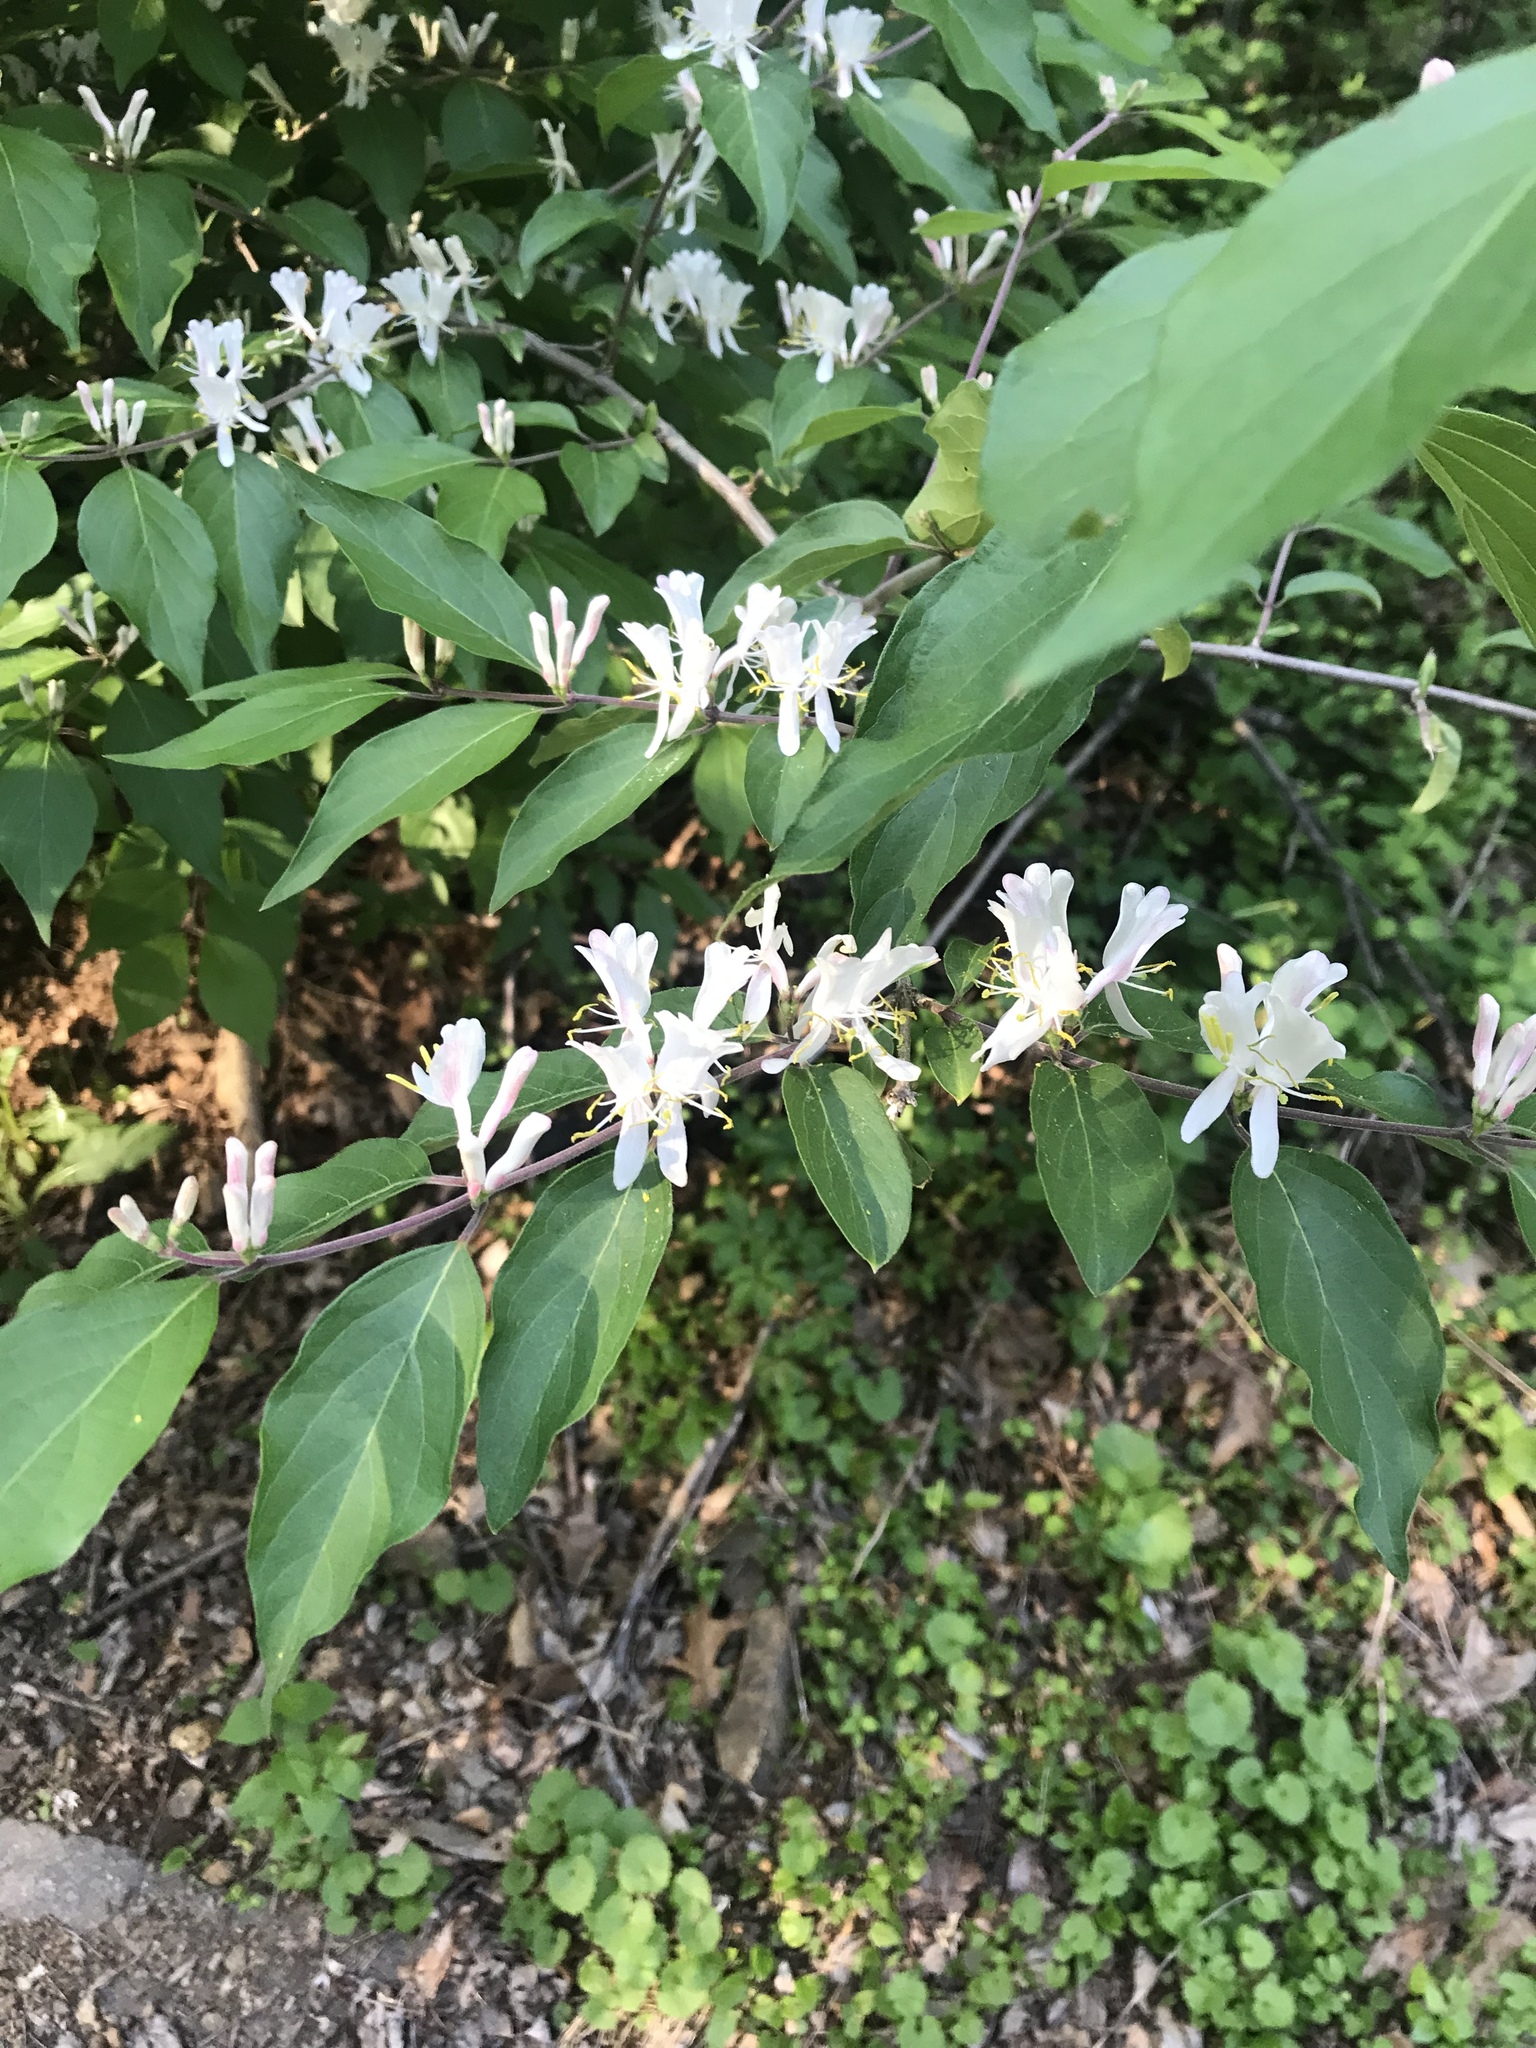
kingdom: Plantae
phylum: Tracheophyta
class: Magnoliopsida
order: Dipsacales
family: Caprifoliaceae
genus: Lonicera
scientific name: Lonicera maackii
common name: Amur honeysuckle
